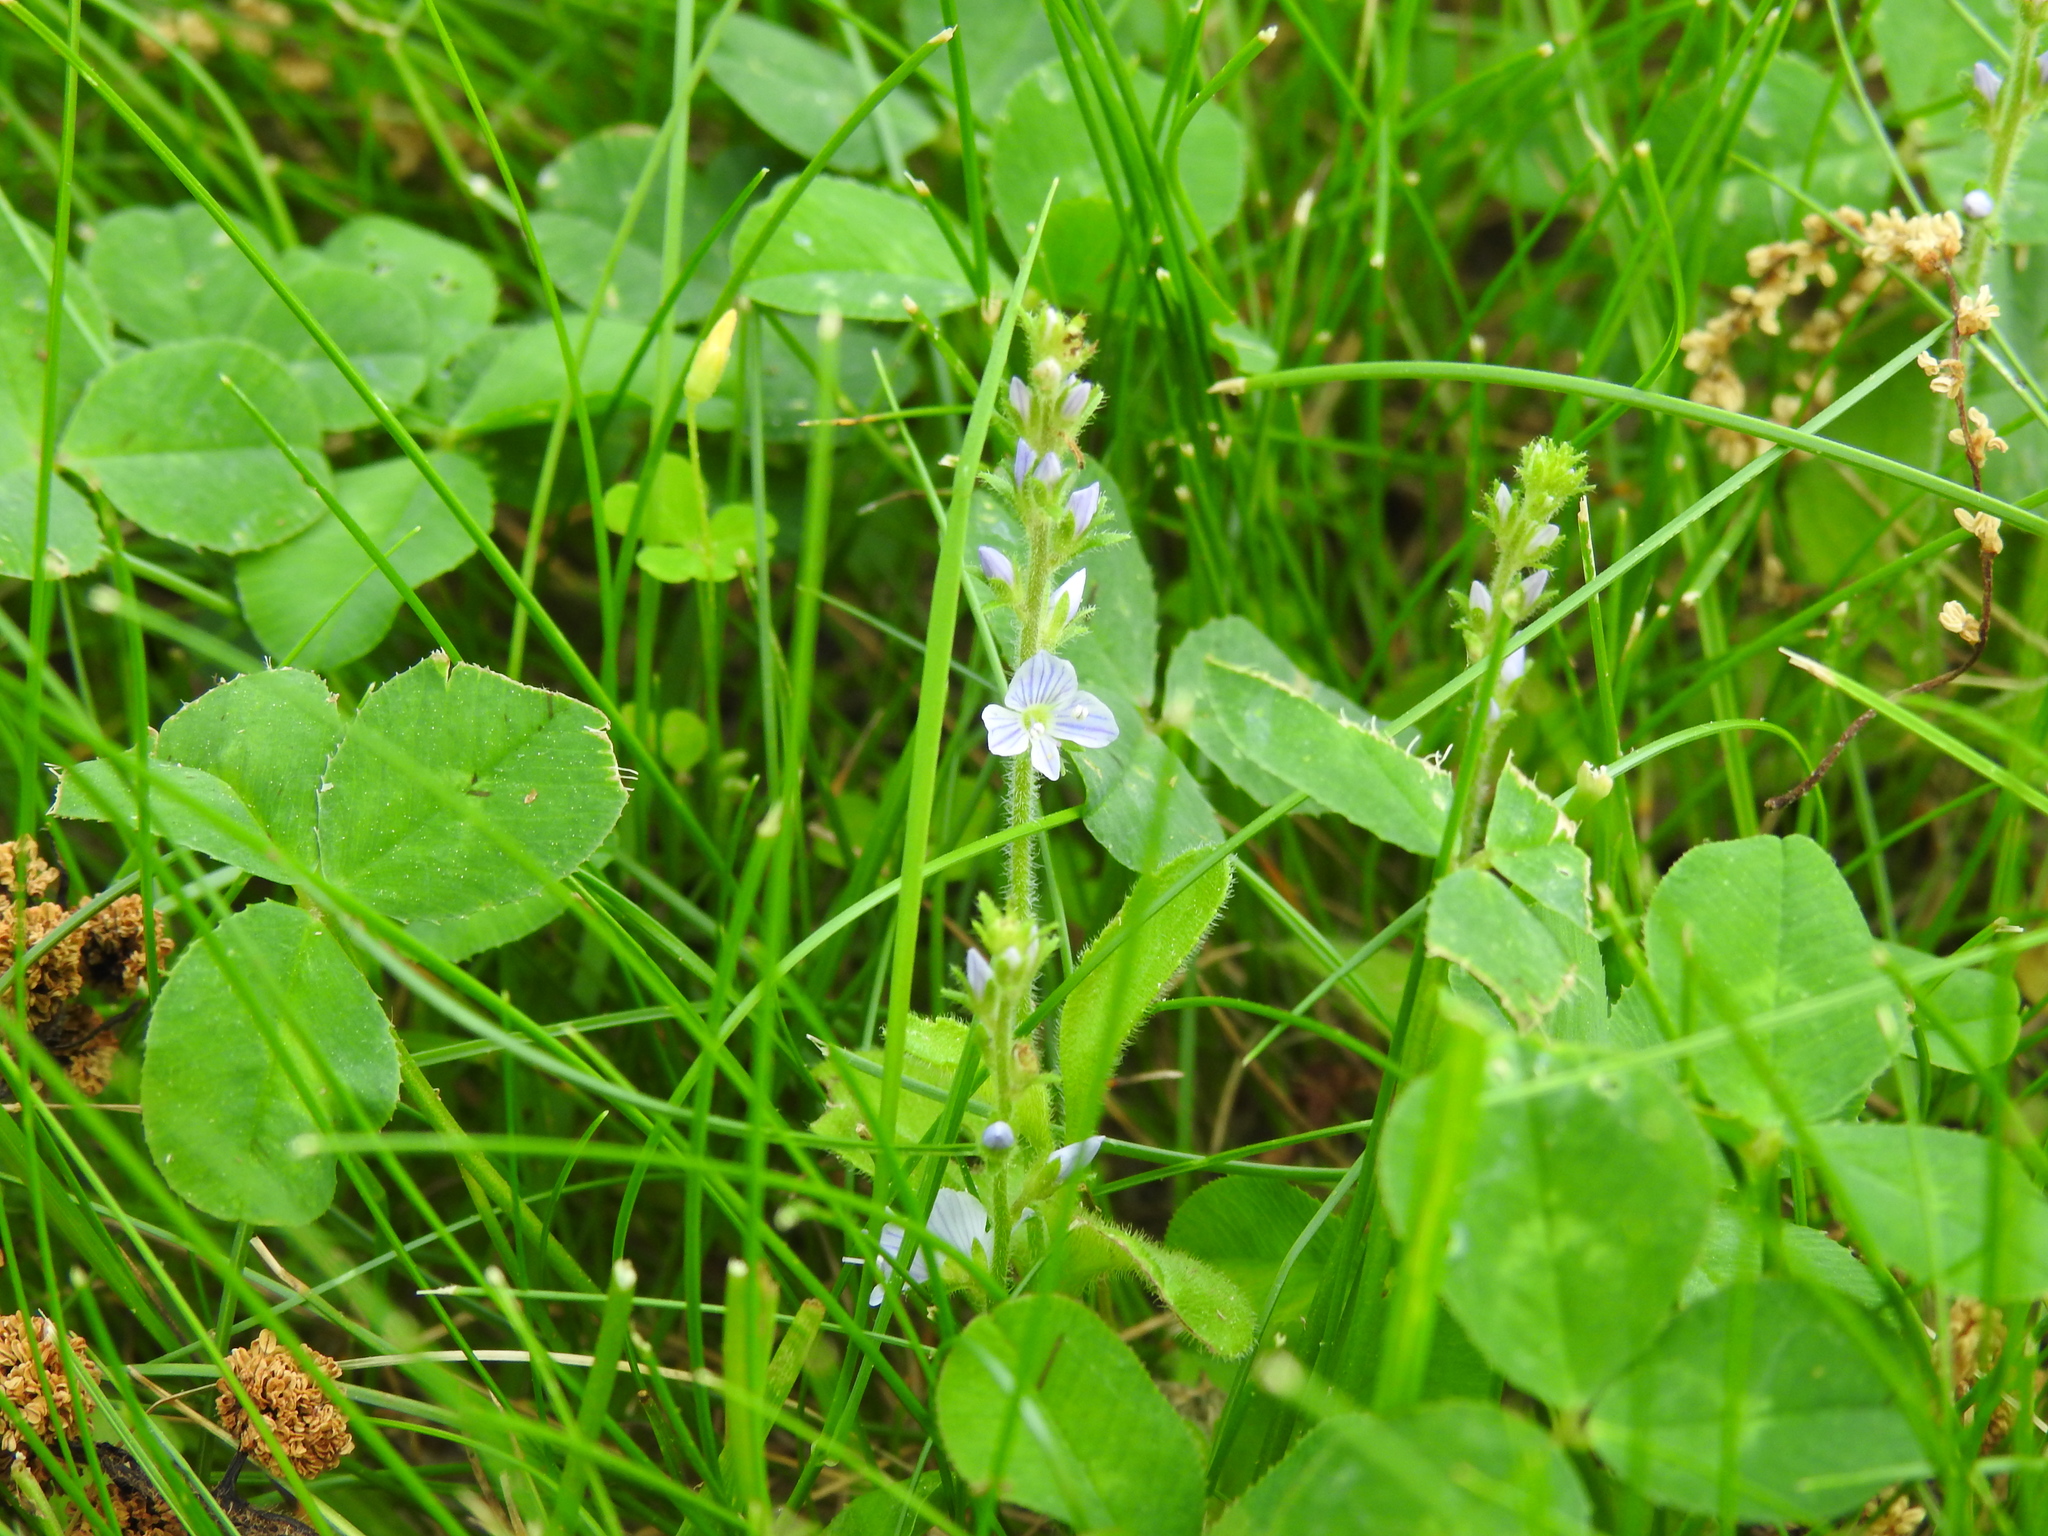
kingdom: Plantae
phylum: Tracheophyta
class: Magnoliopsida
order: Lamiales
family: Plantaginaceae
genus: Veronica
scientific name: Veronica officinalis
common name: Common speedwell
